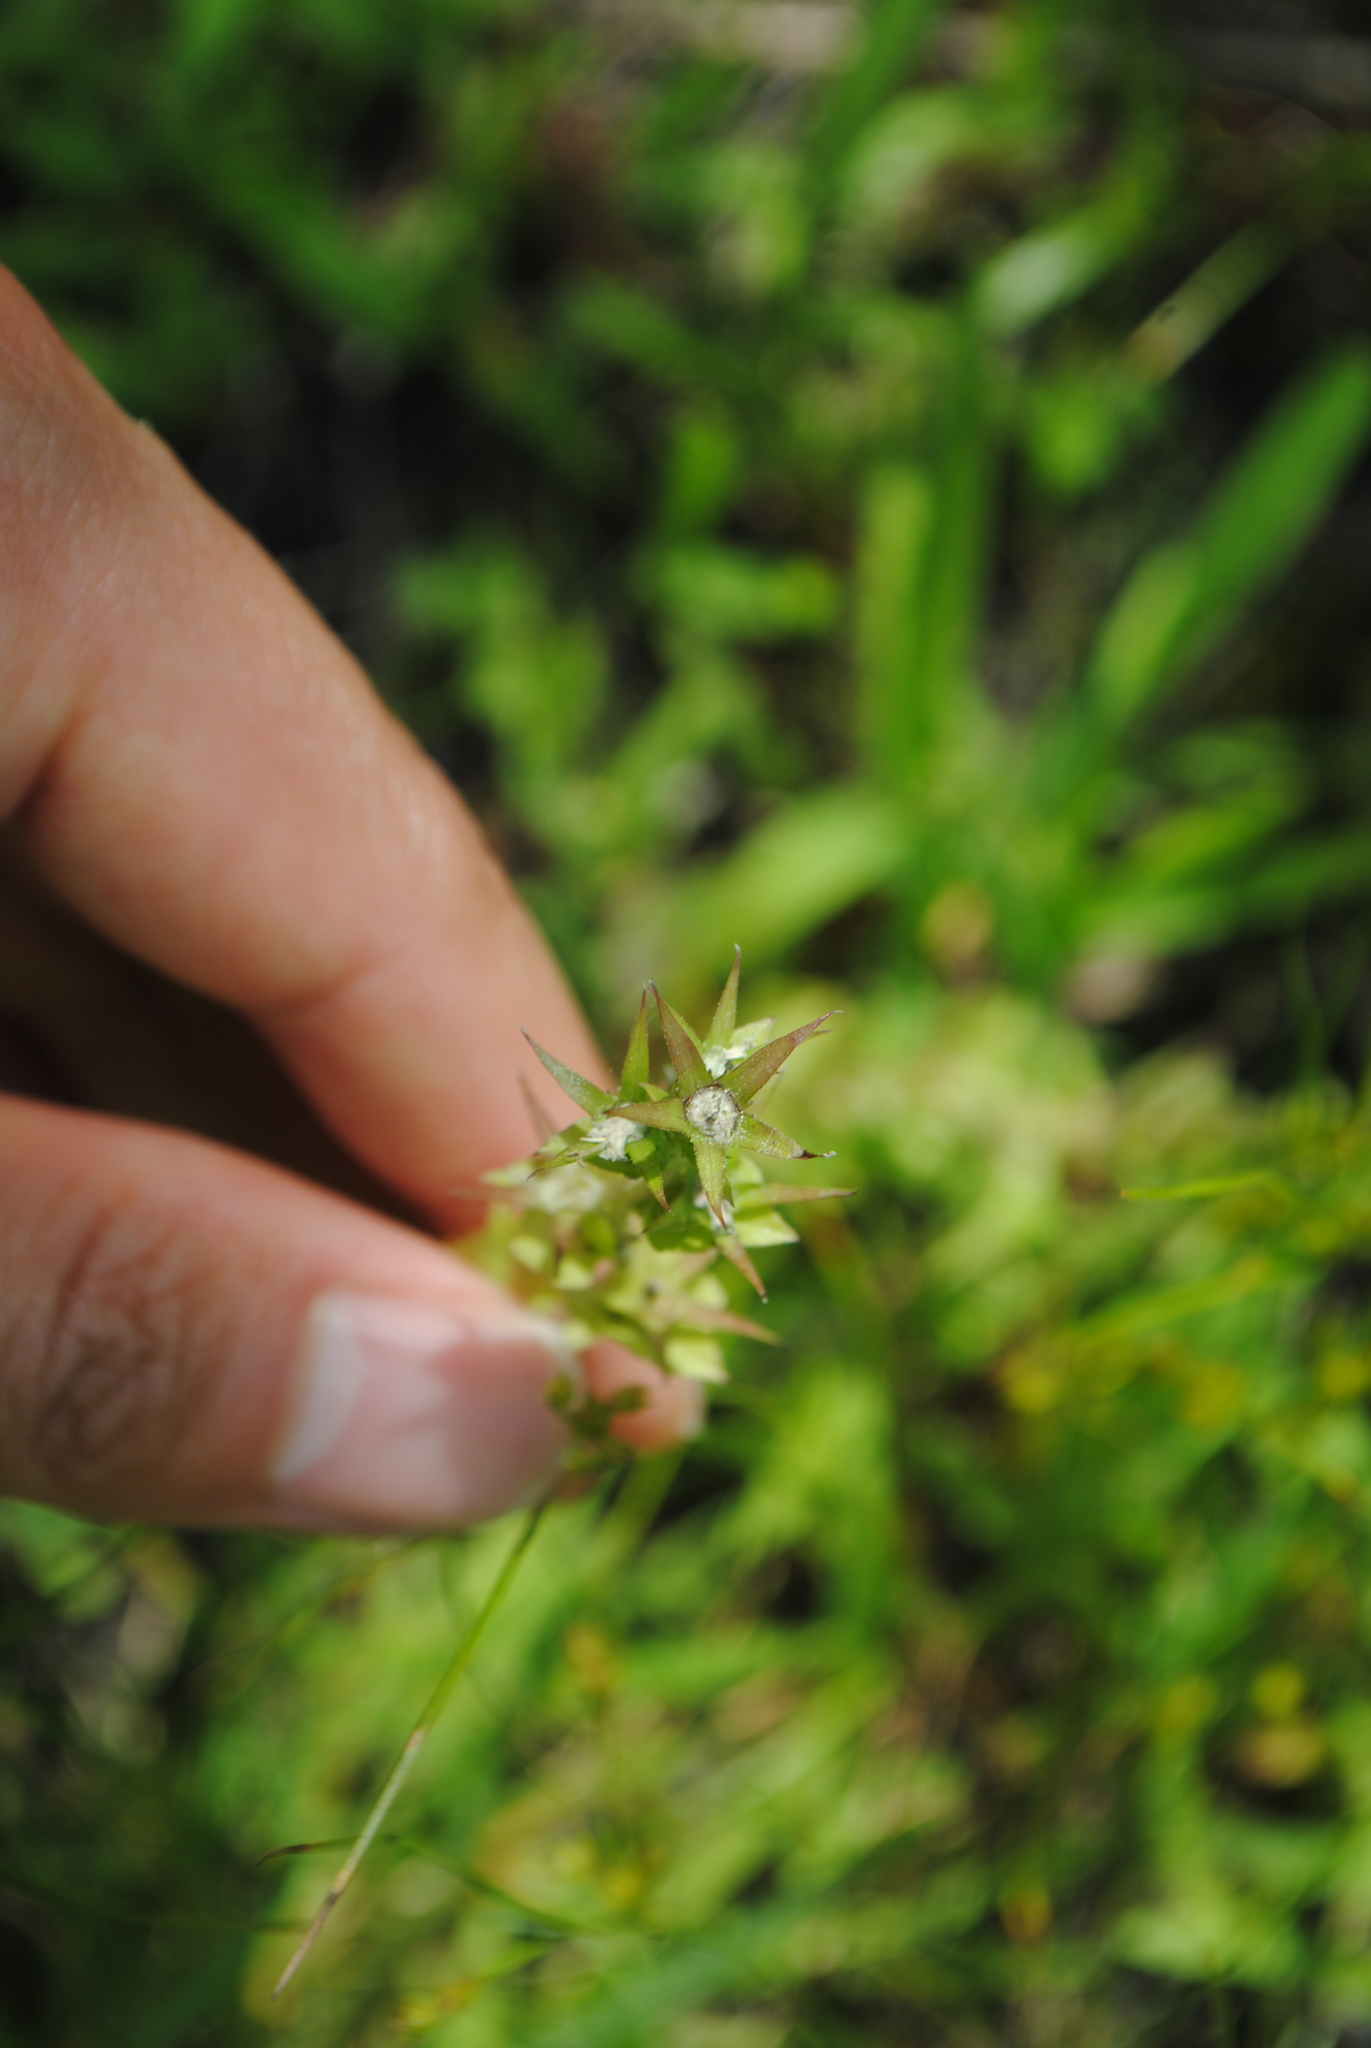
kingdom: Plantae
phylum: Tracheophyta
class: Magnoliopsida
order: Asterales
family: Campanulaceae
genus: Triodanis
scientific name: Triodanis perfoliata
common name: Clasping venus' looking-glass
